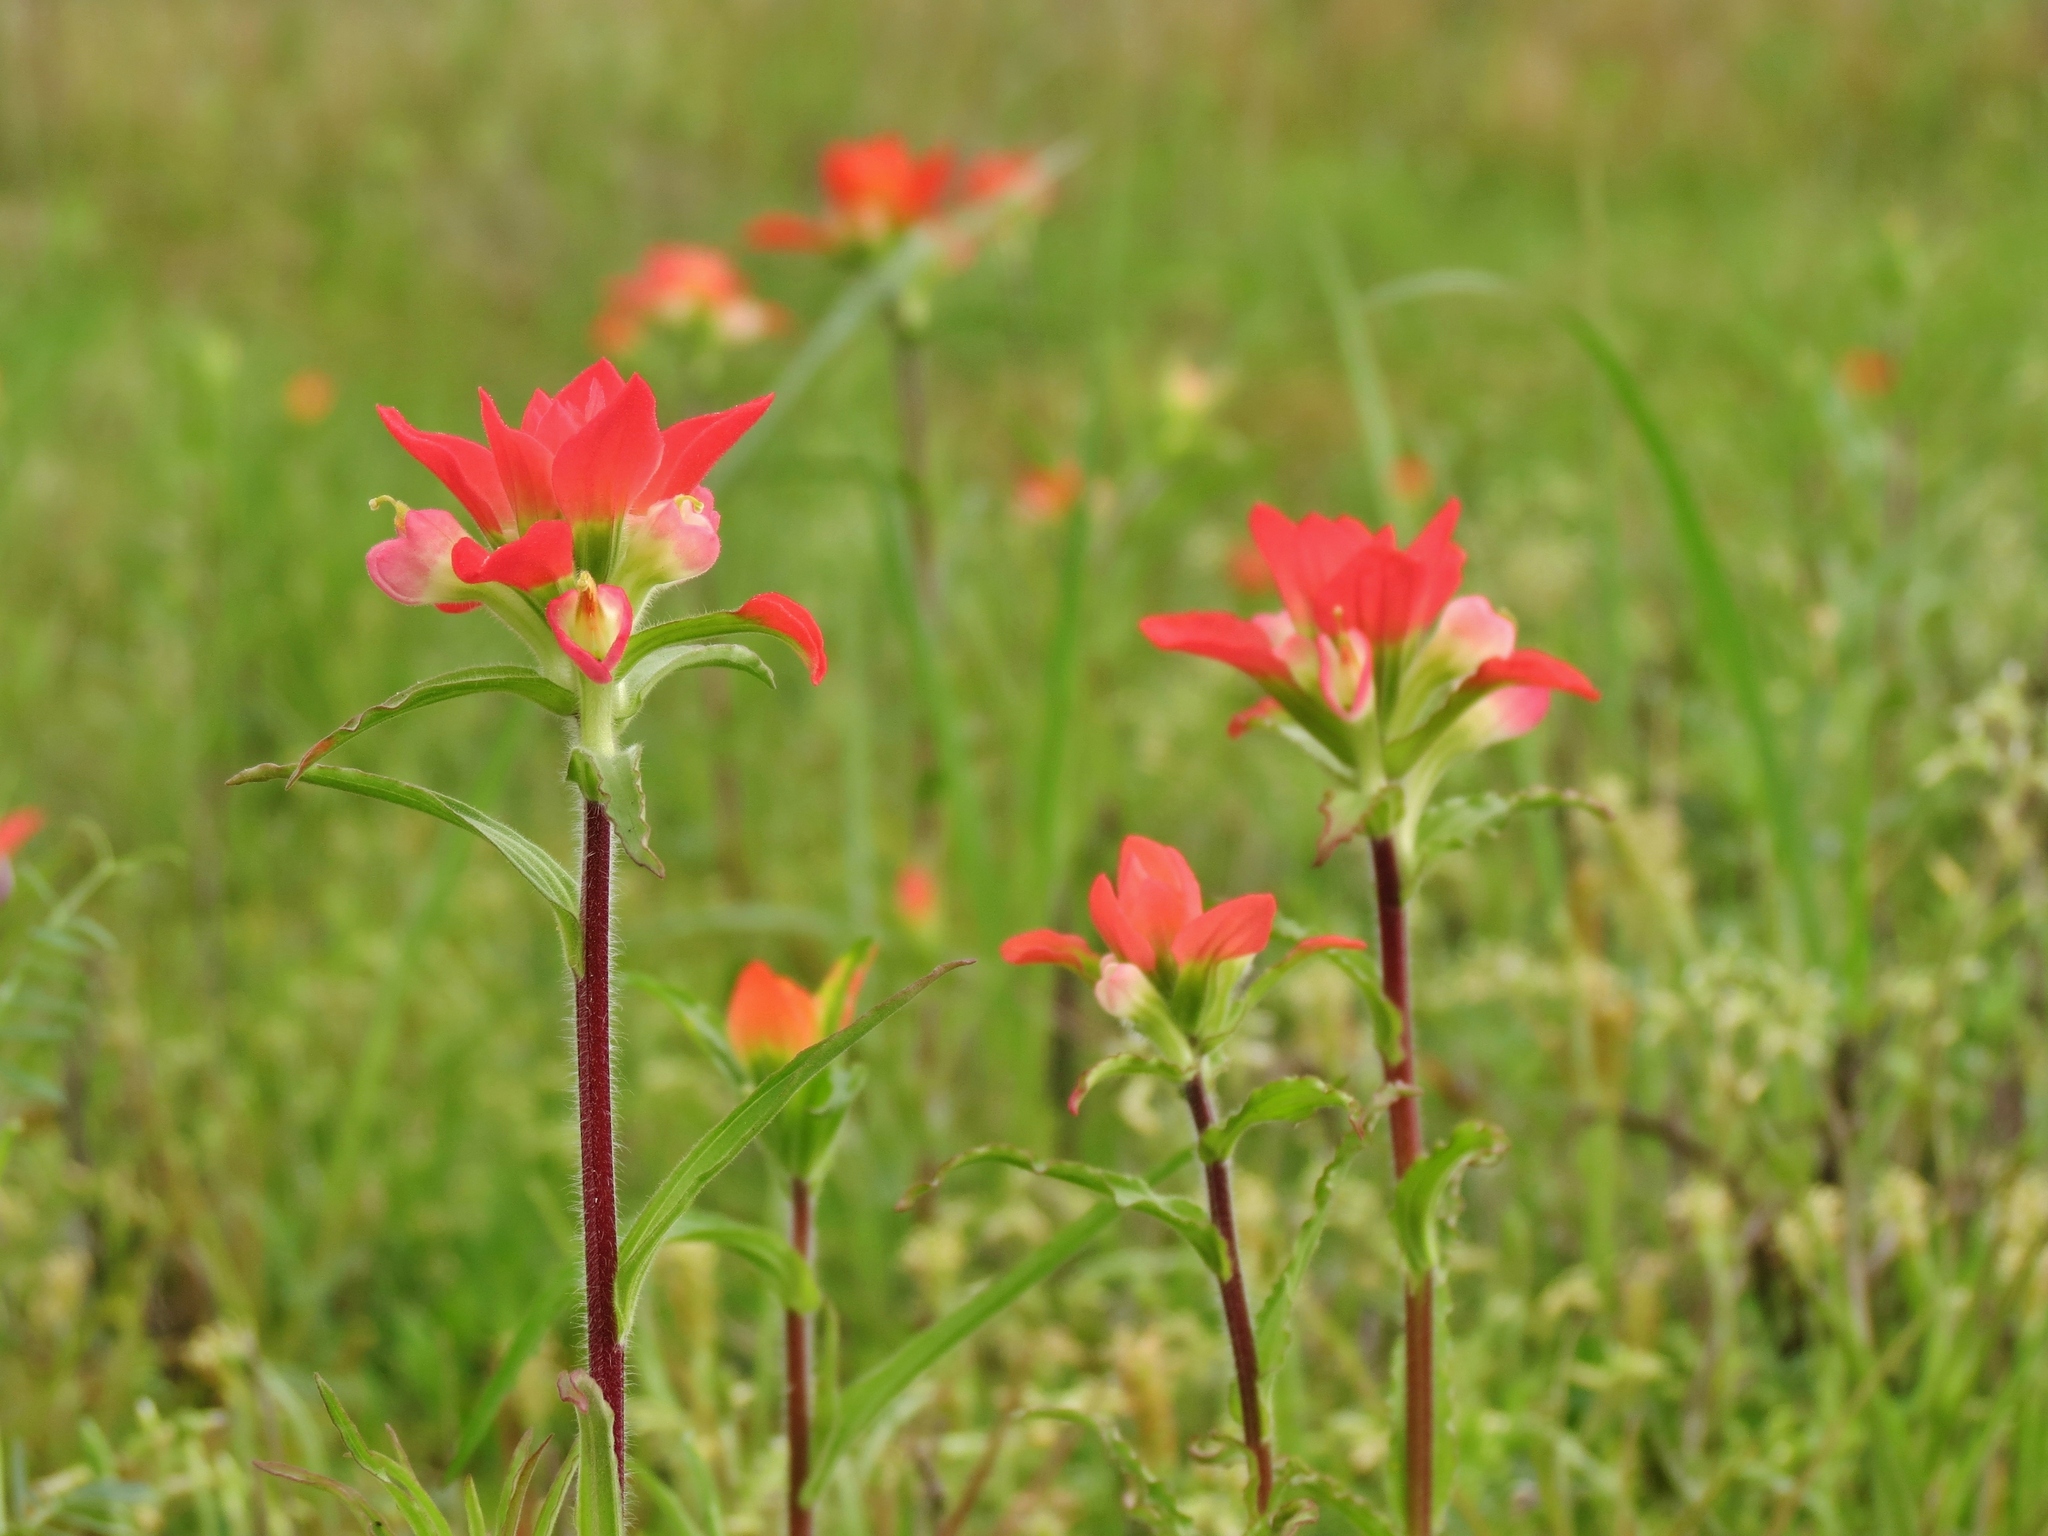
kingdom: Plantae
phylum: Tracheophyta
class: Magnoliopsida
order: Lamiales
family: Orobanchaceae
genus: Castilleja
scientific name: Castilleja indivisa
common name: Texas paintbrush
